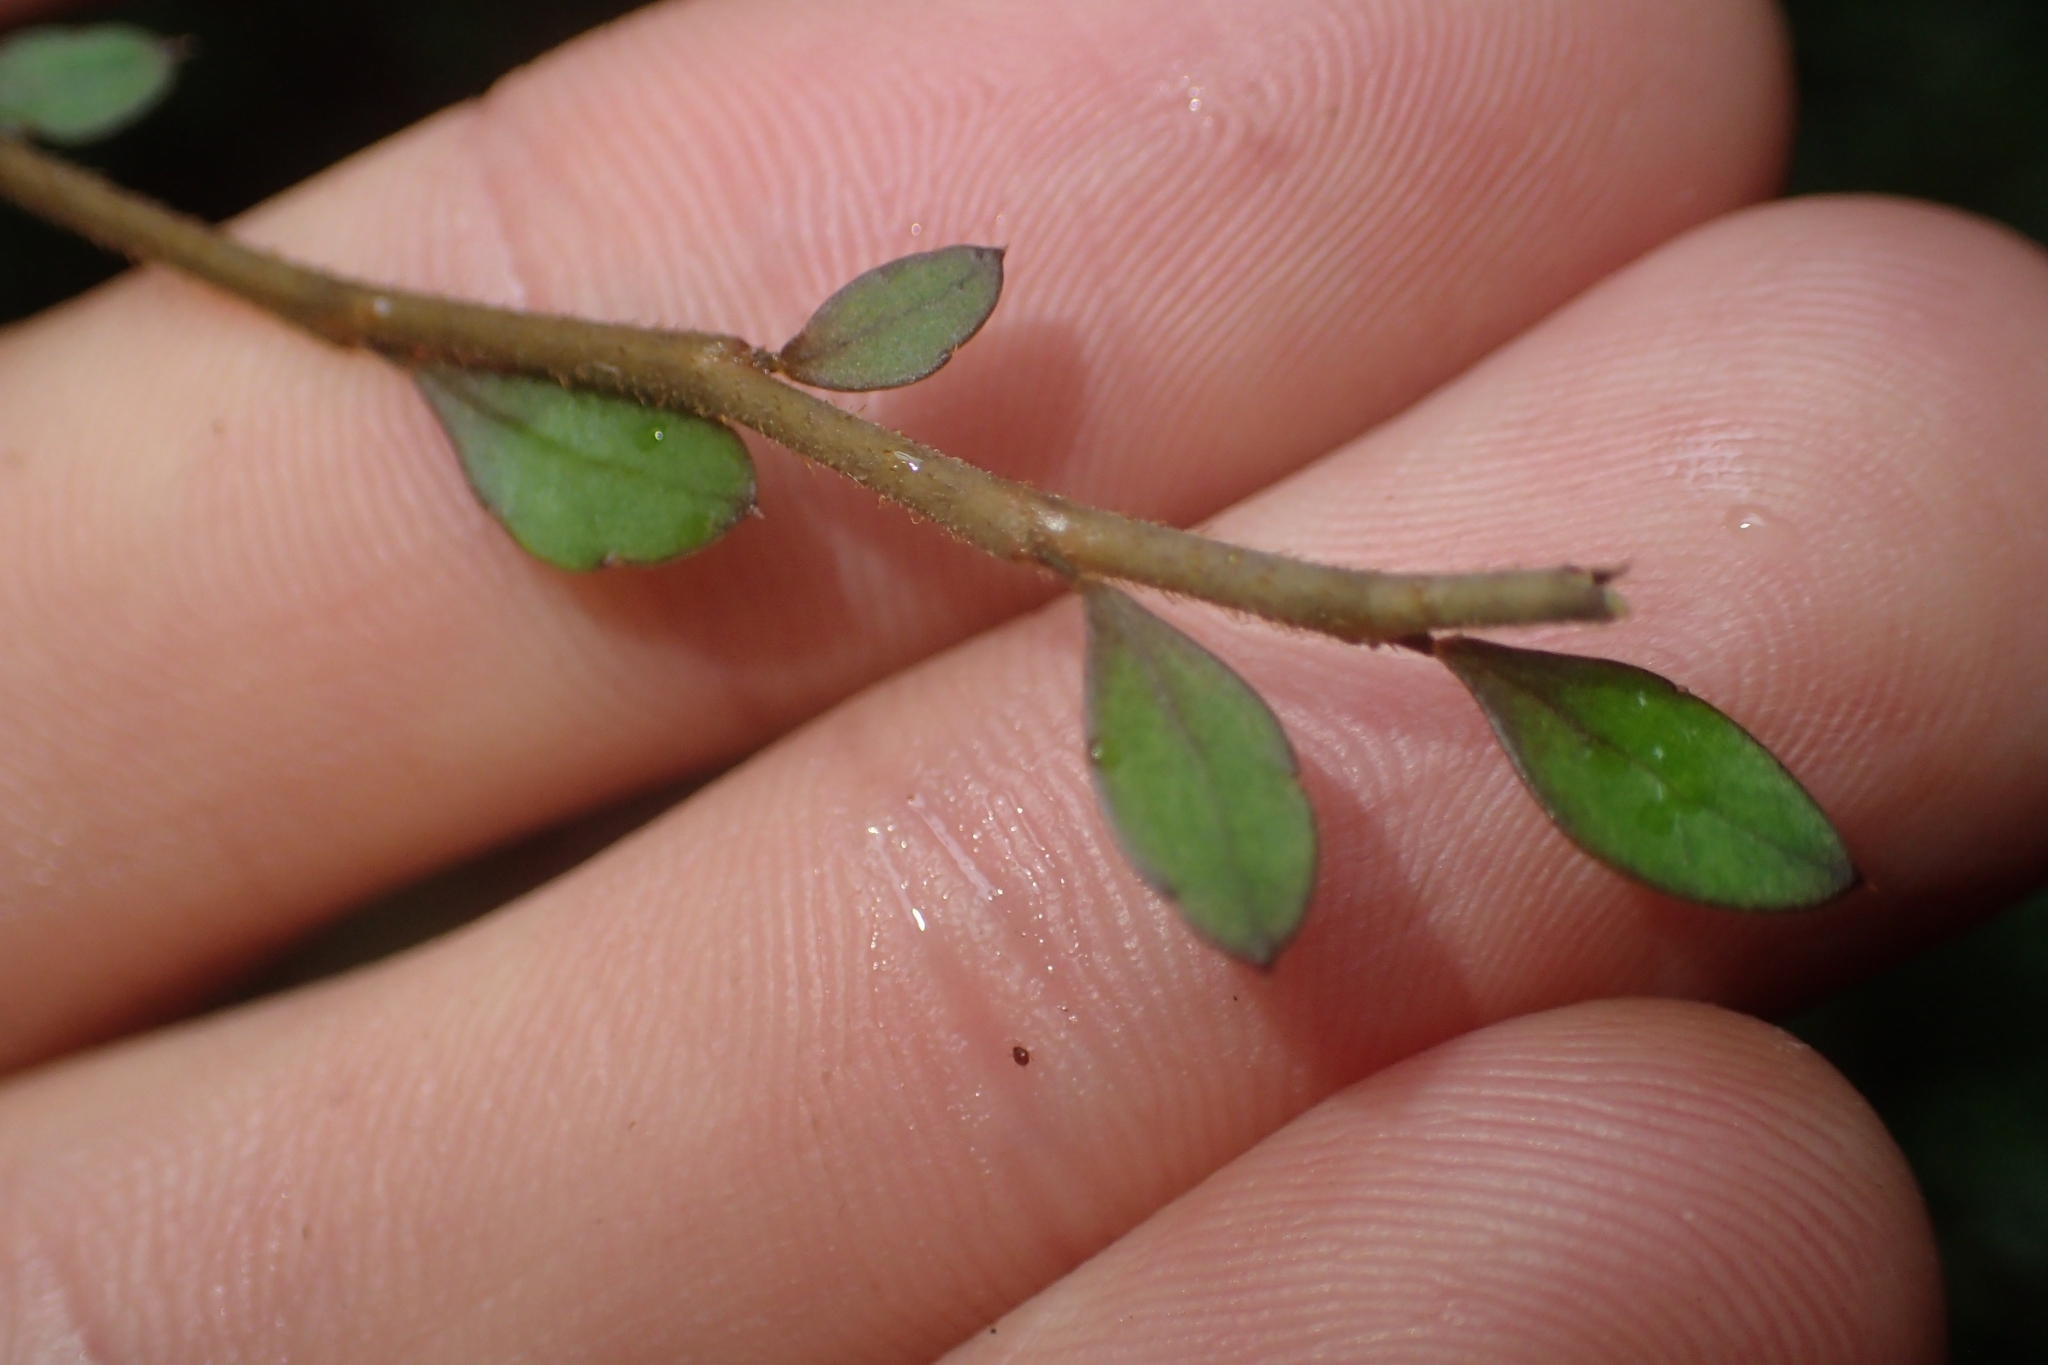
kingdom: Plantae
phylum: Tracheophyta
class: Magnoliopsida
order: Apiales
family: Araliaceae
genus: Raukaua
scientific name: Raukaua anomalus
